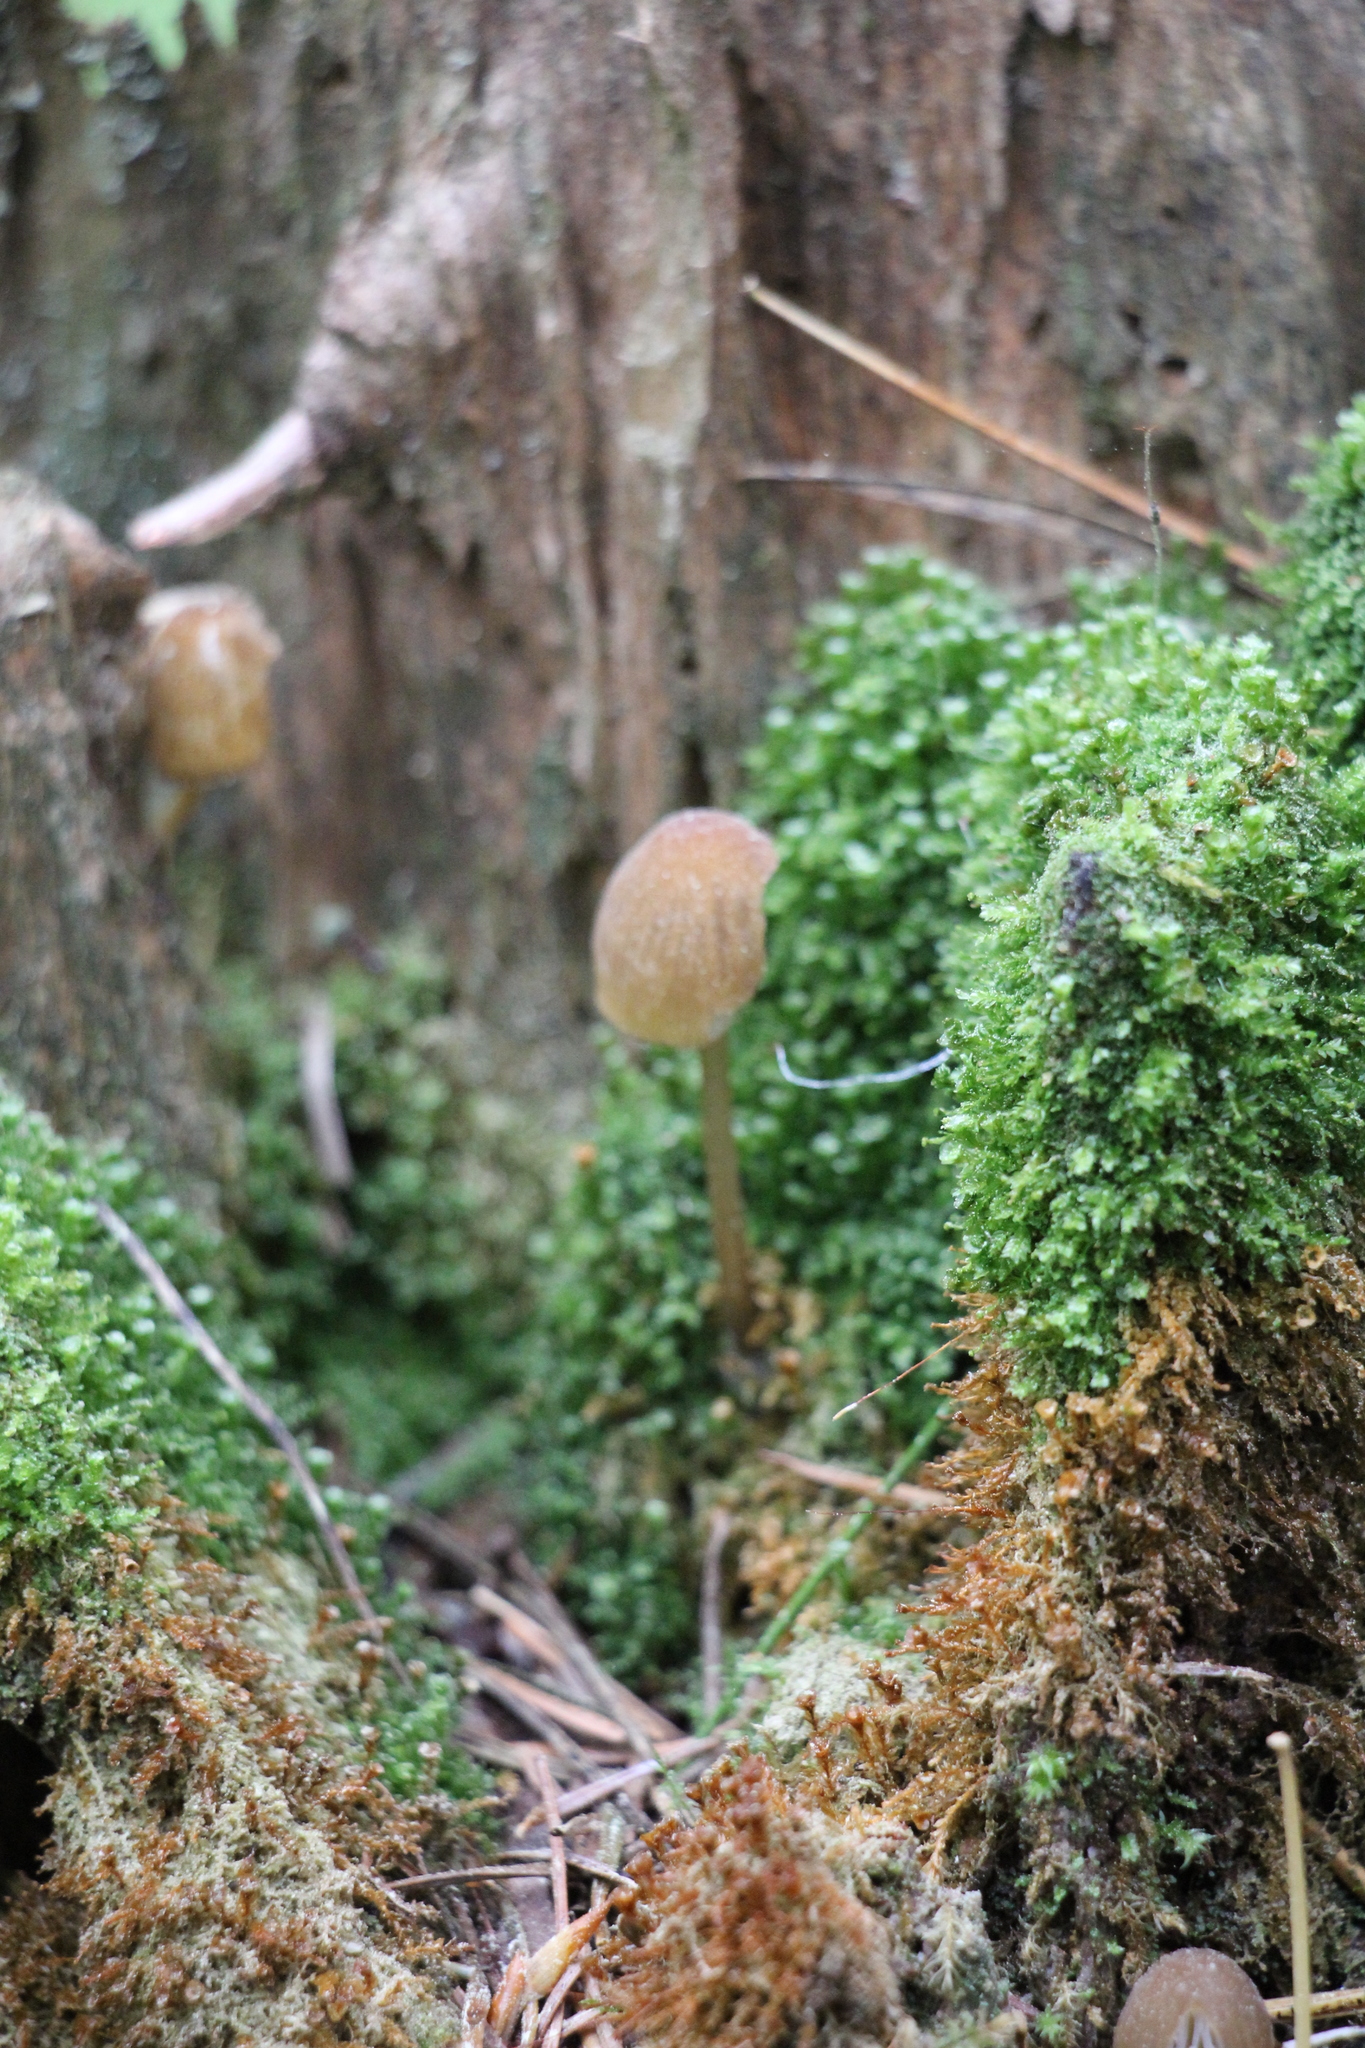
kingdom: Fungi
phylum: Basidiomycota
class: Agaricomycetes
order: Agaricales
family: Mycenaceae
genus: Mycena
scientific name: Mycena viridimarginata
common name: Olive edge bonnet
